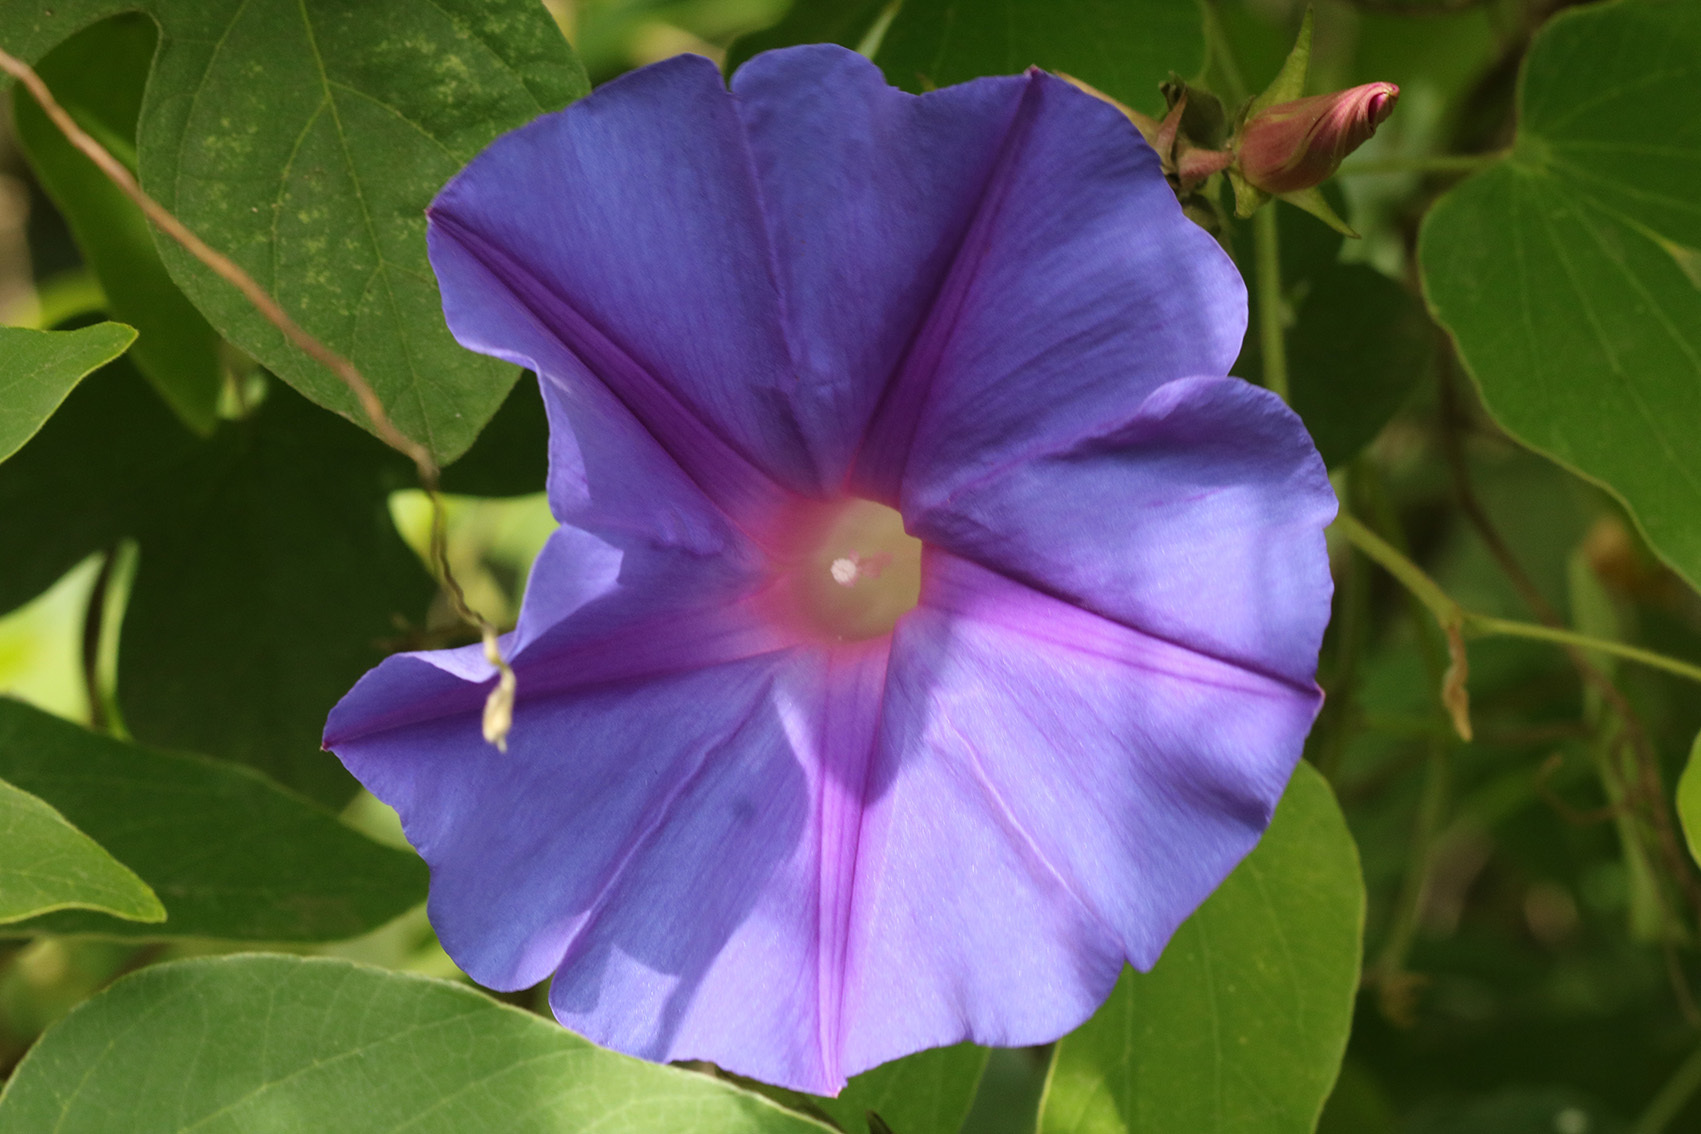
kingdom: Plantae
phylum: Tracheophyta
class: Magnoliopsida
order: Solanales
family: Convolvulaceae
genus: Ipomoea
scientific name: Ipomoea indica
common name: Blue dawnflower
